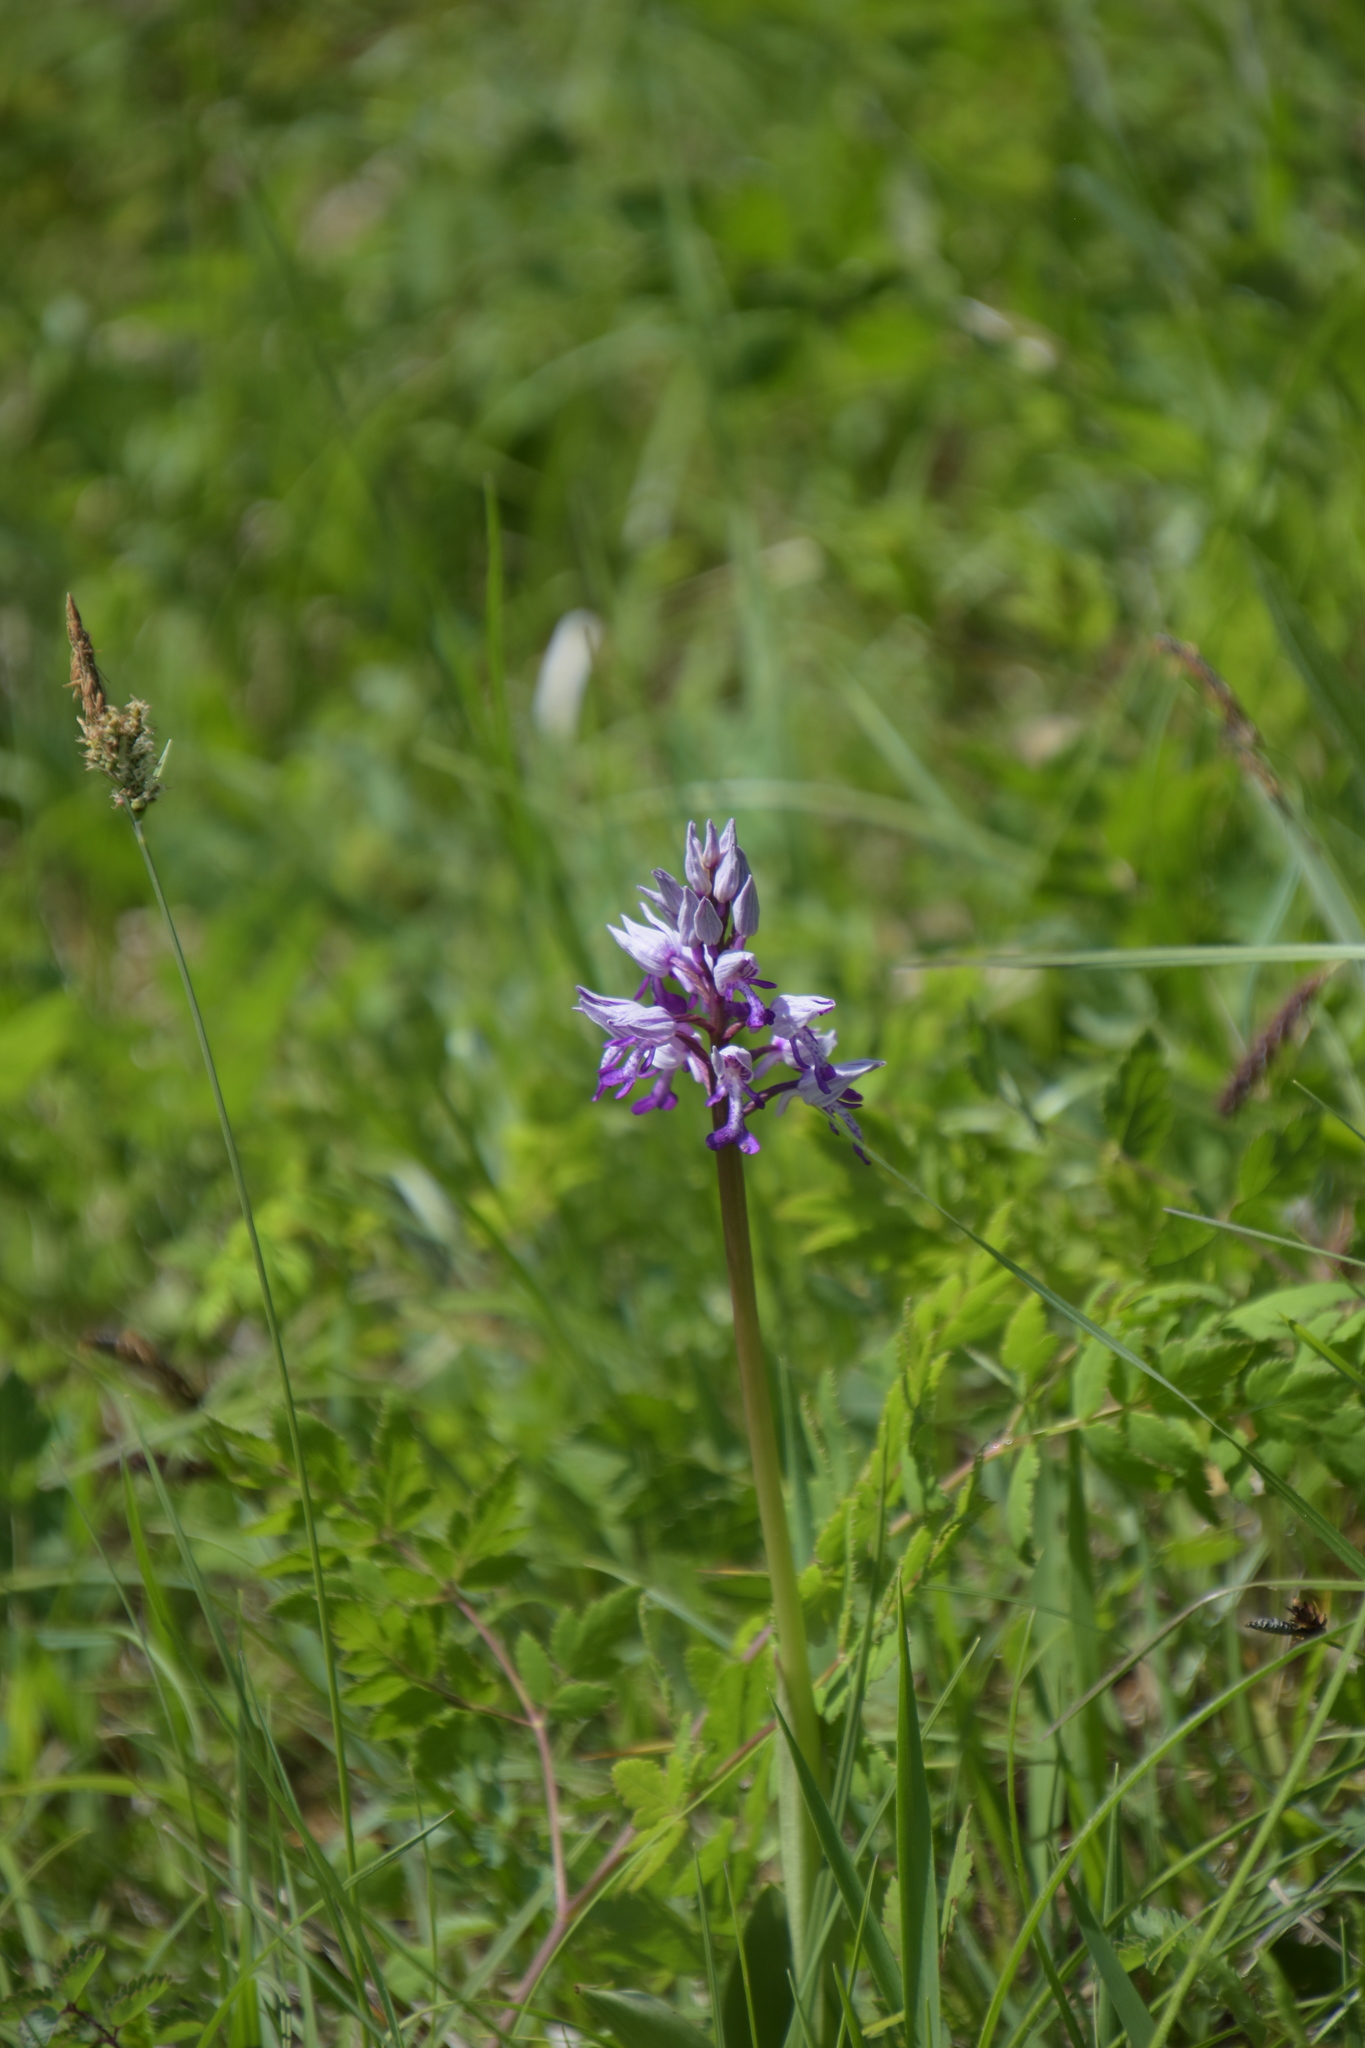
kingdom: Plantae
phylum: Tracheophyta
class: Liliopsida
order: Asparagales
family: Orchidaceae
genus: Orchis
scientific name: Orchis militaris
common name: Military orchid
